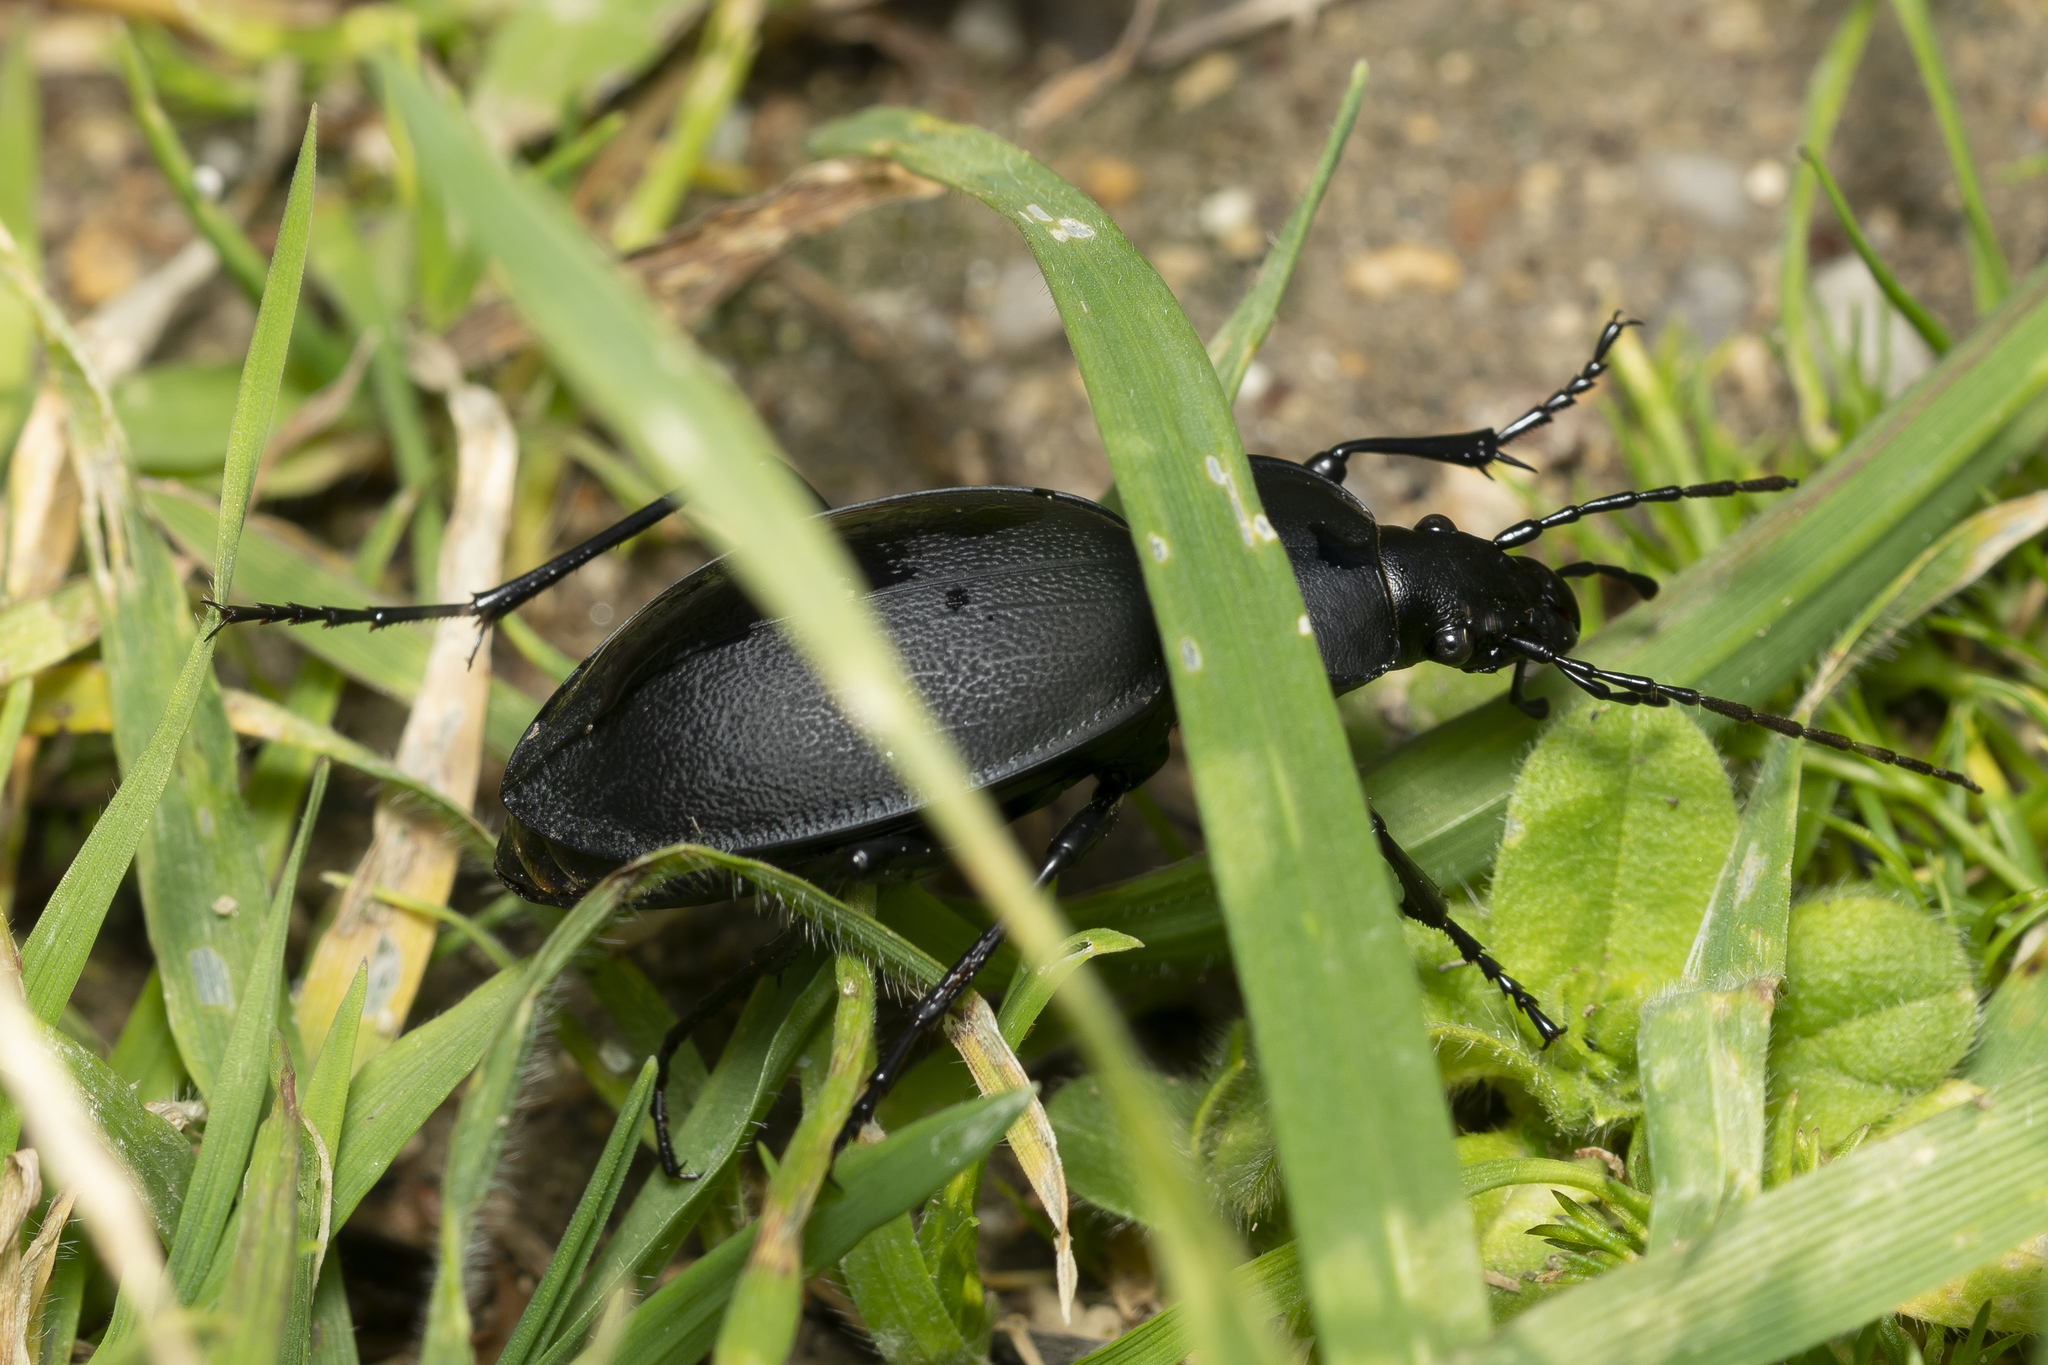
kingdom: Animalia
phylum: Arthropoda
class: Insecta
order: Coleoptera
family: Carabidae
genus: Carabus
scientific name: Carabus coriaceus
